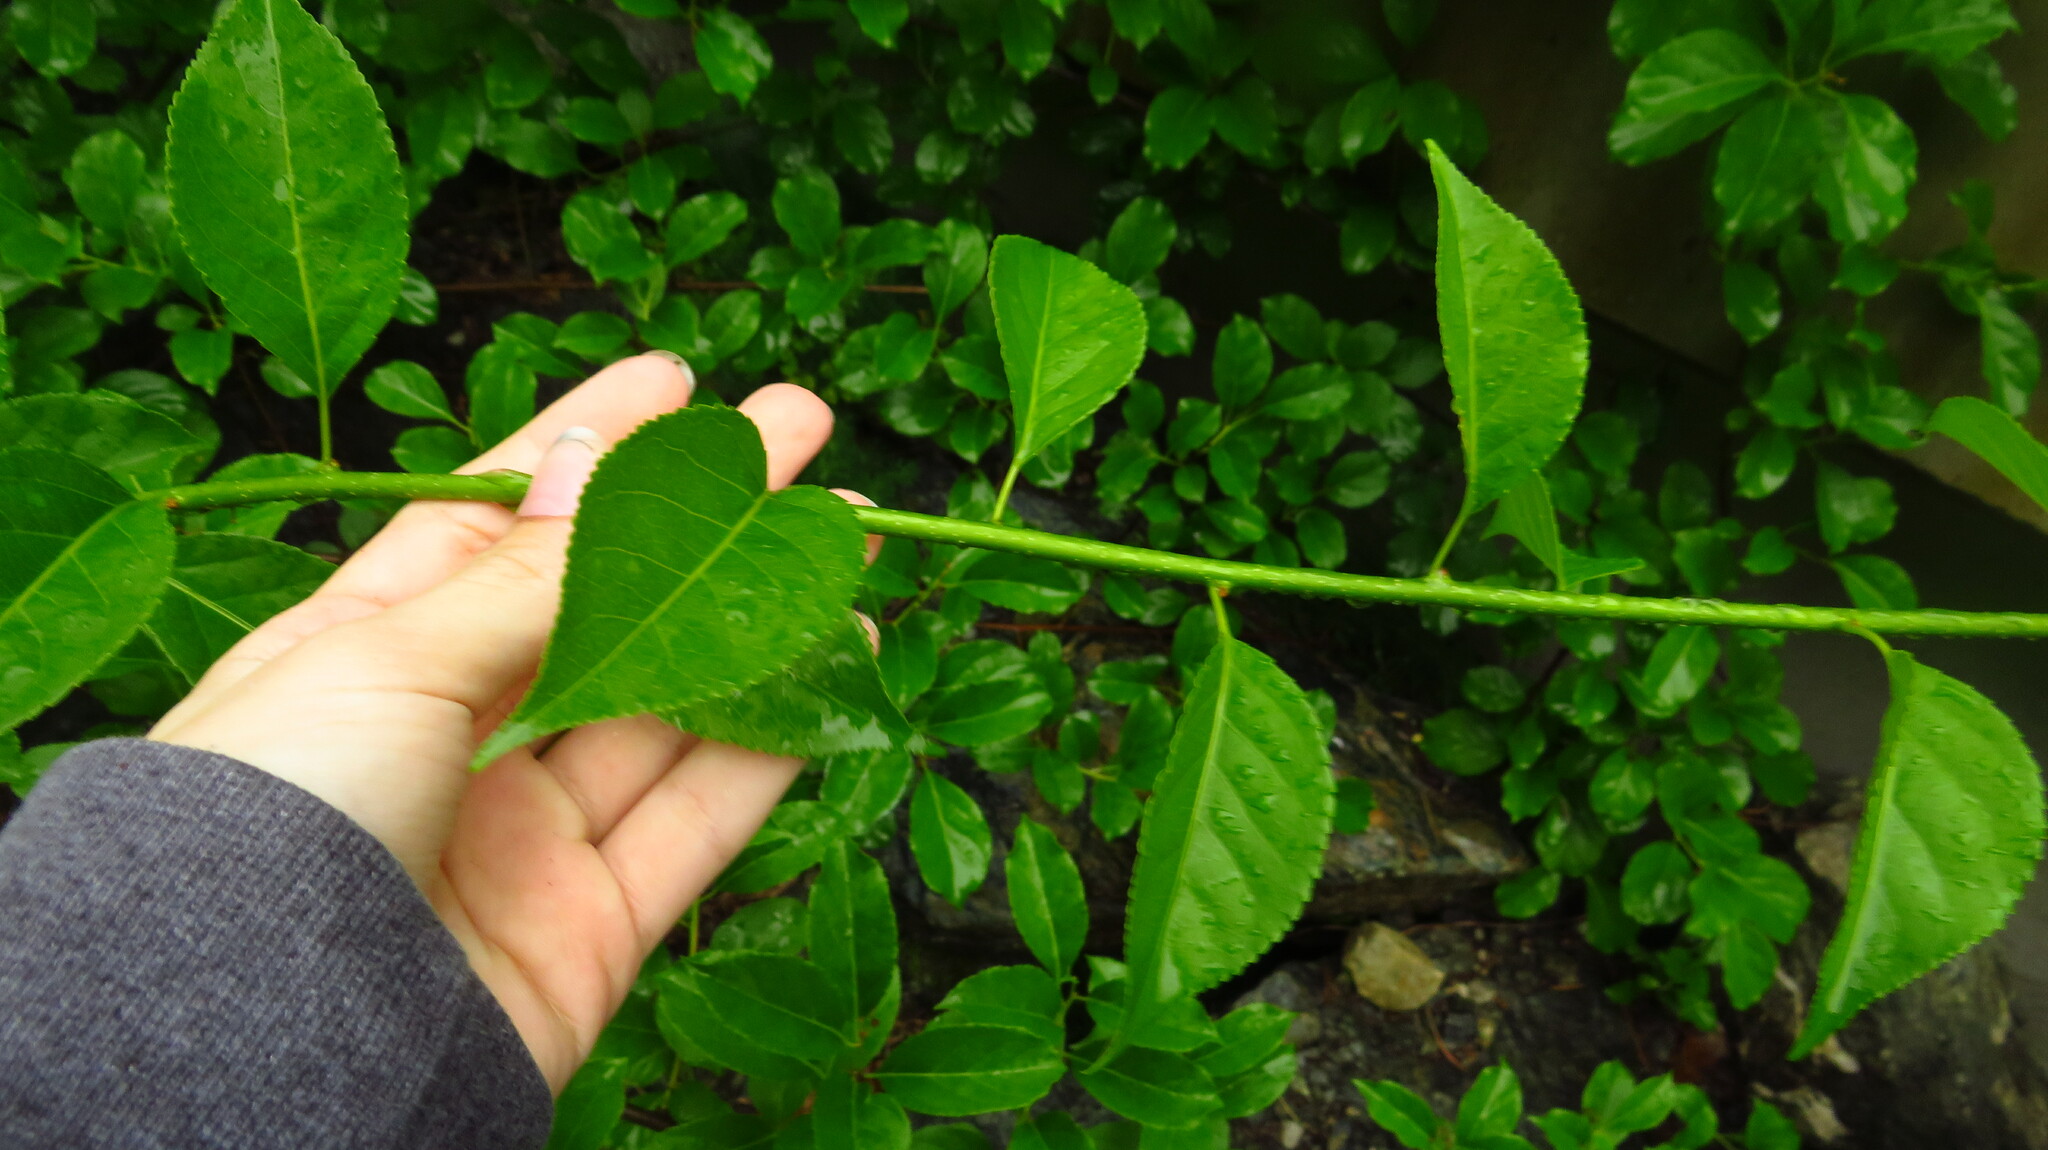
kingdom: Plantae
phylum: Tracheophyta
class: Magnoliopsida
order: Celastrales
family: Celastraceae
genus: Celastrus
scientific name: Celastrus orbiculatus
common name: Oriental bittersweet
